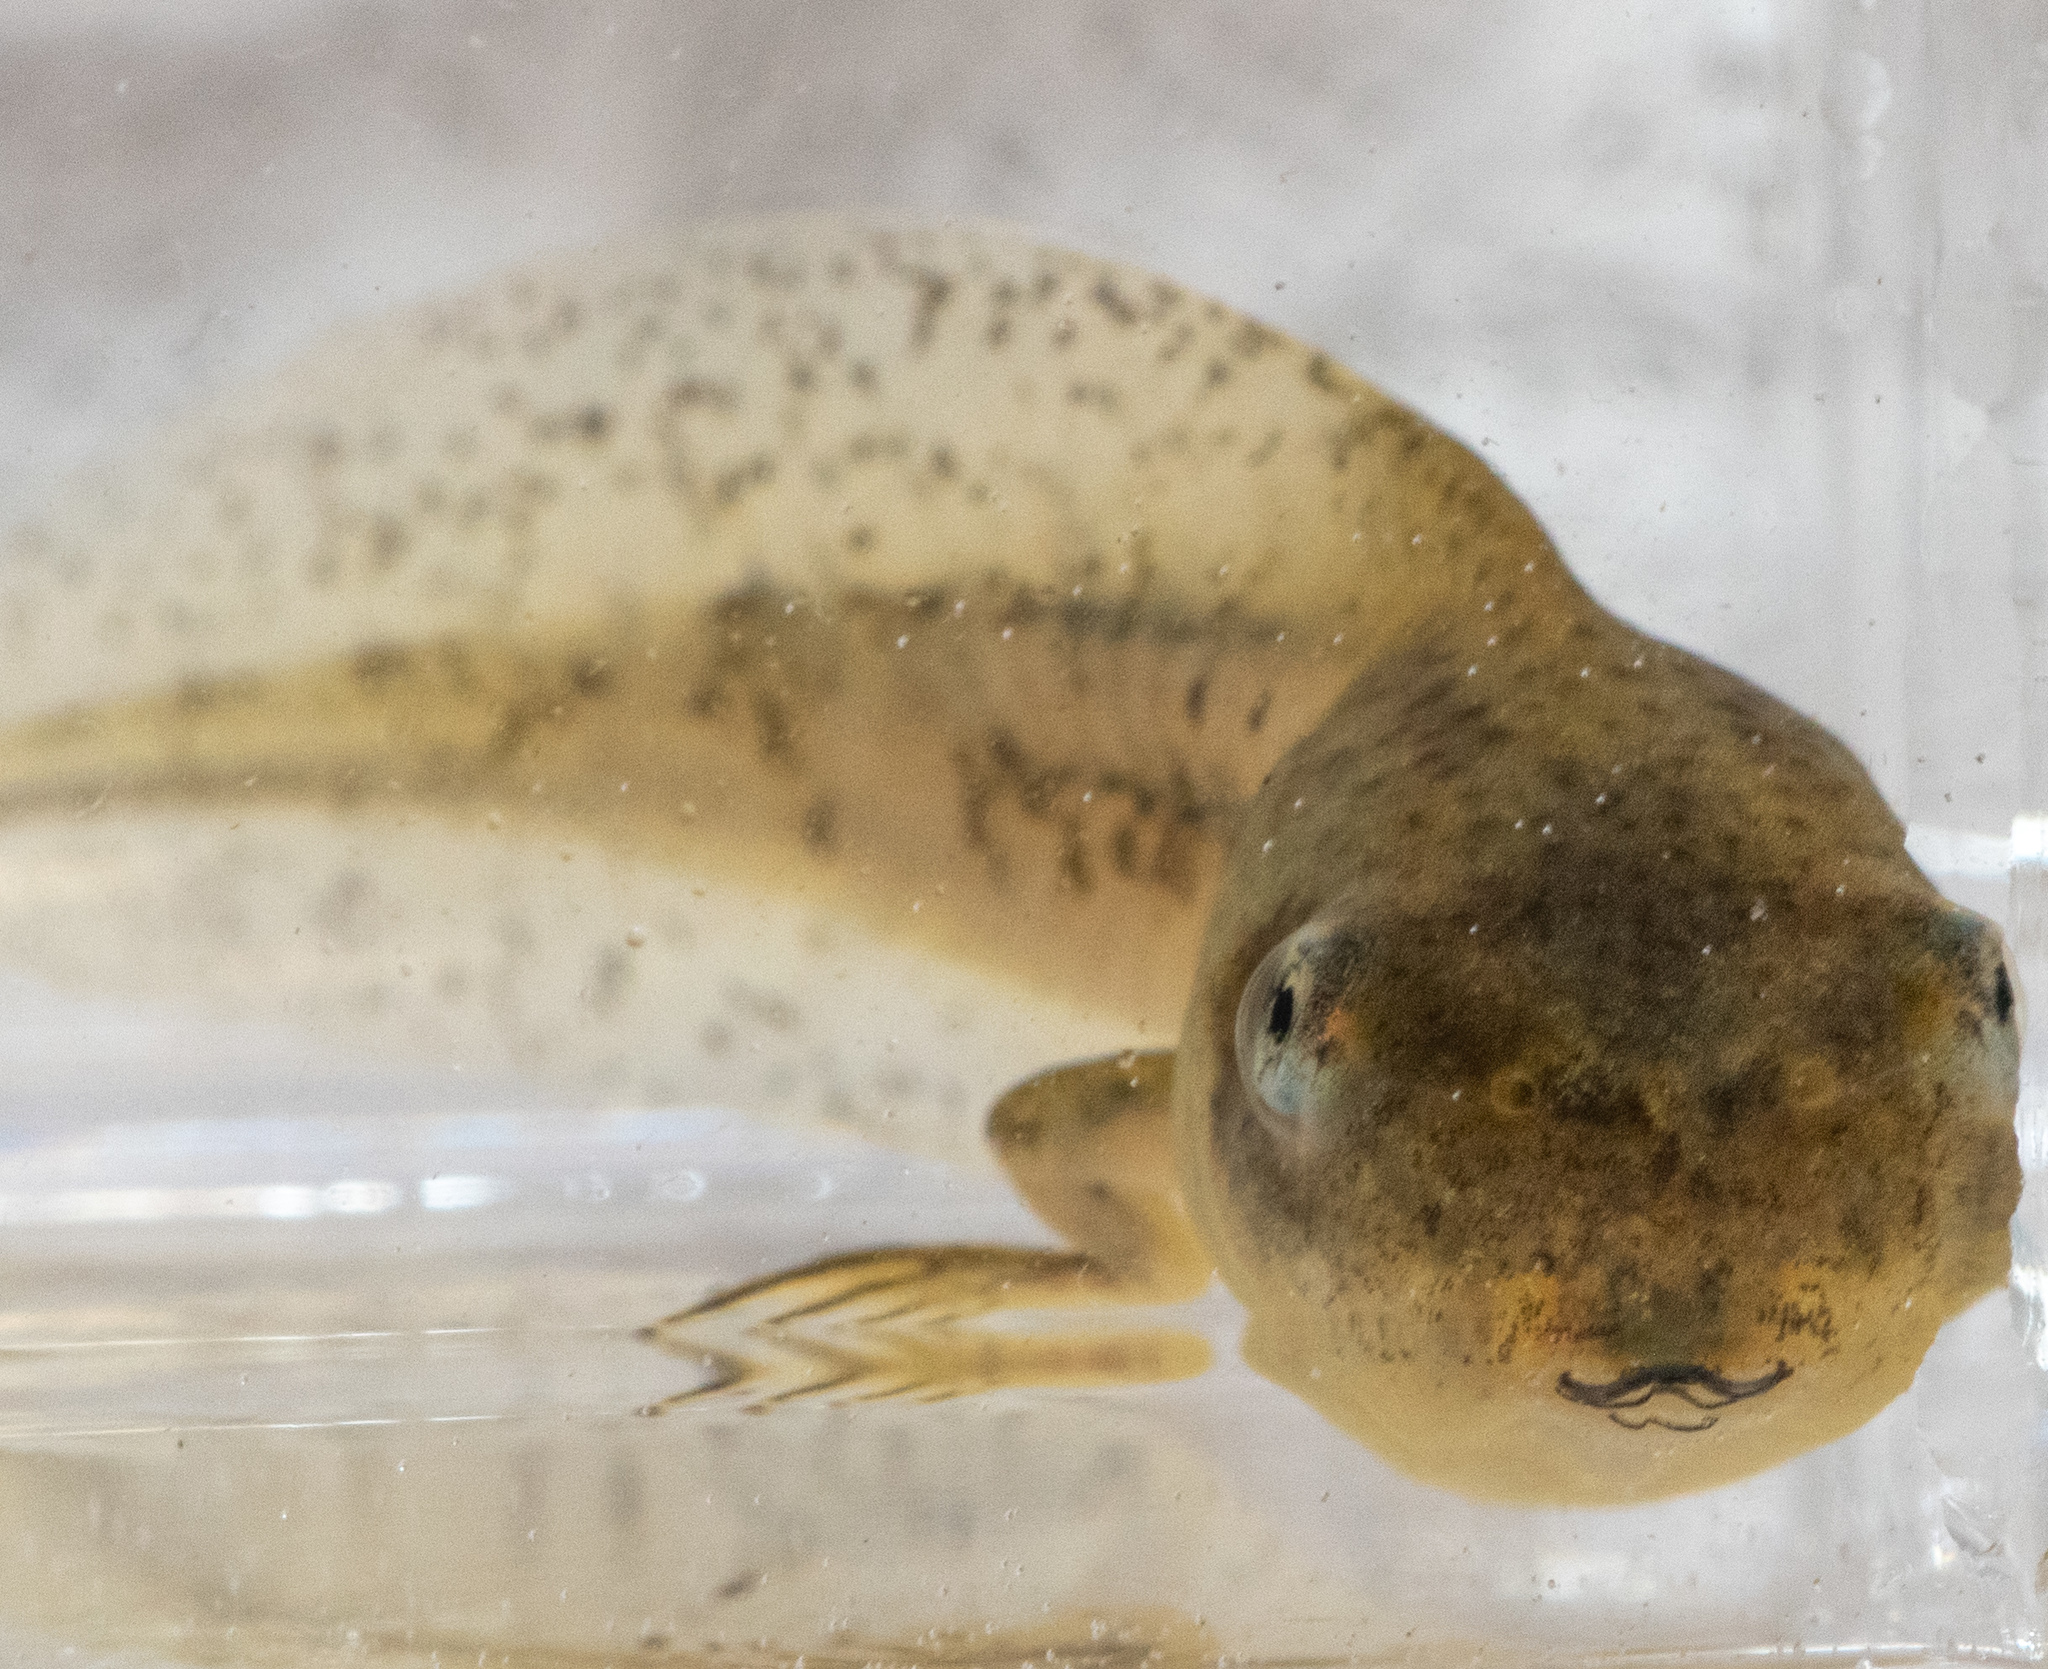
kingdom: Animalia
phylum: Chordata
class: Amphibia
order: Anura
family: Hylidae
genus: Pseudacris
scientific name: Pseudacris regilla
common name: Pacific chorus frog
